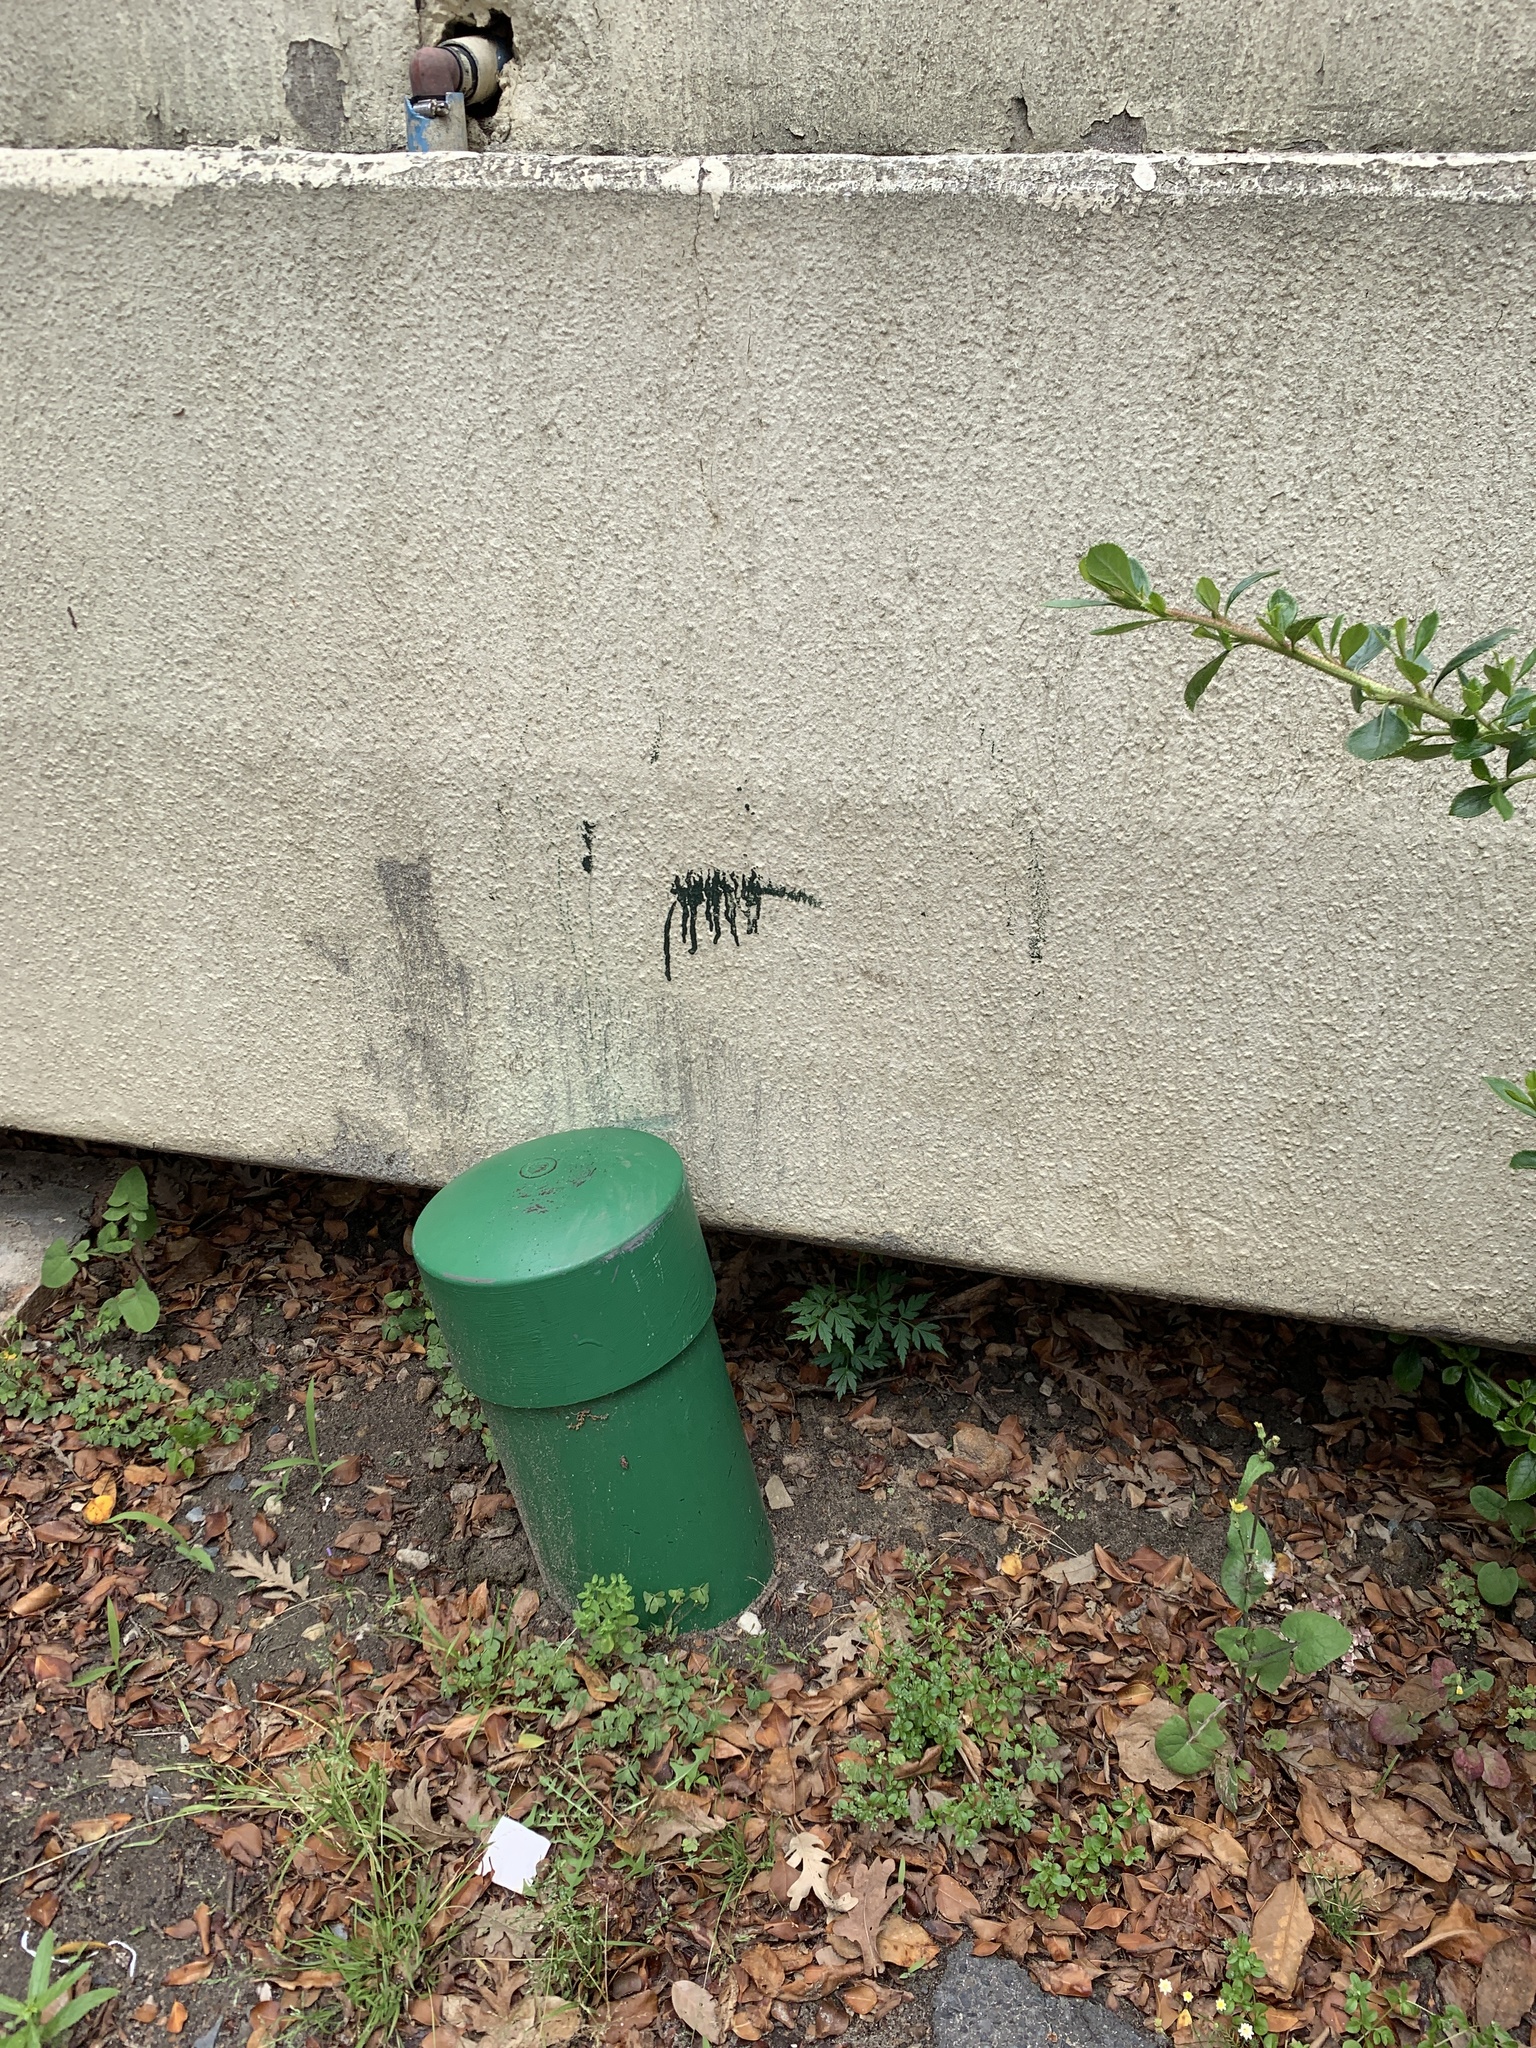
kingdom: Plantae
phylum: Tracheophyta
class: Magnoliopsida
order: Sapindales
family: Meliaceae
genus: Melia
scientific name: Melia azedarach
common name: Chinaberrytree
